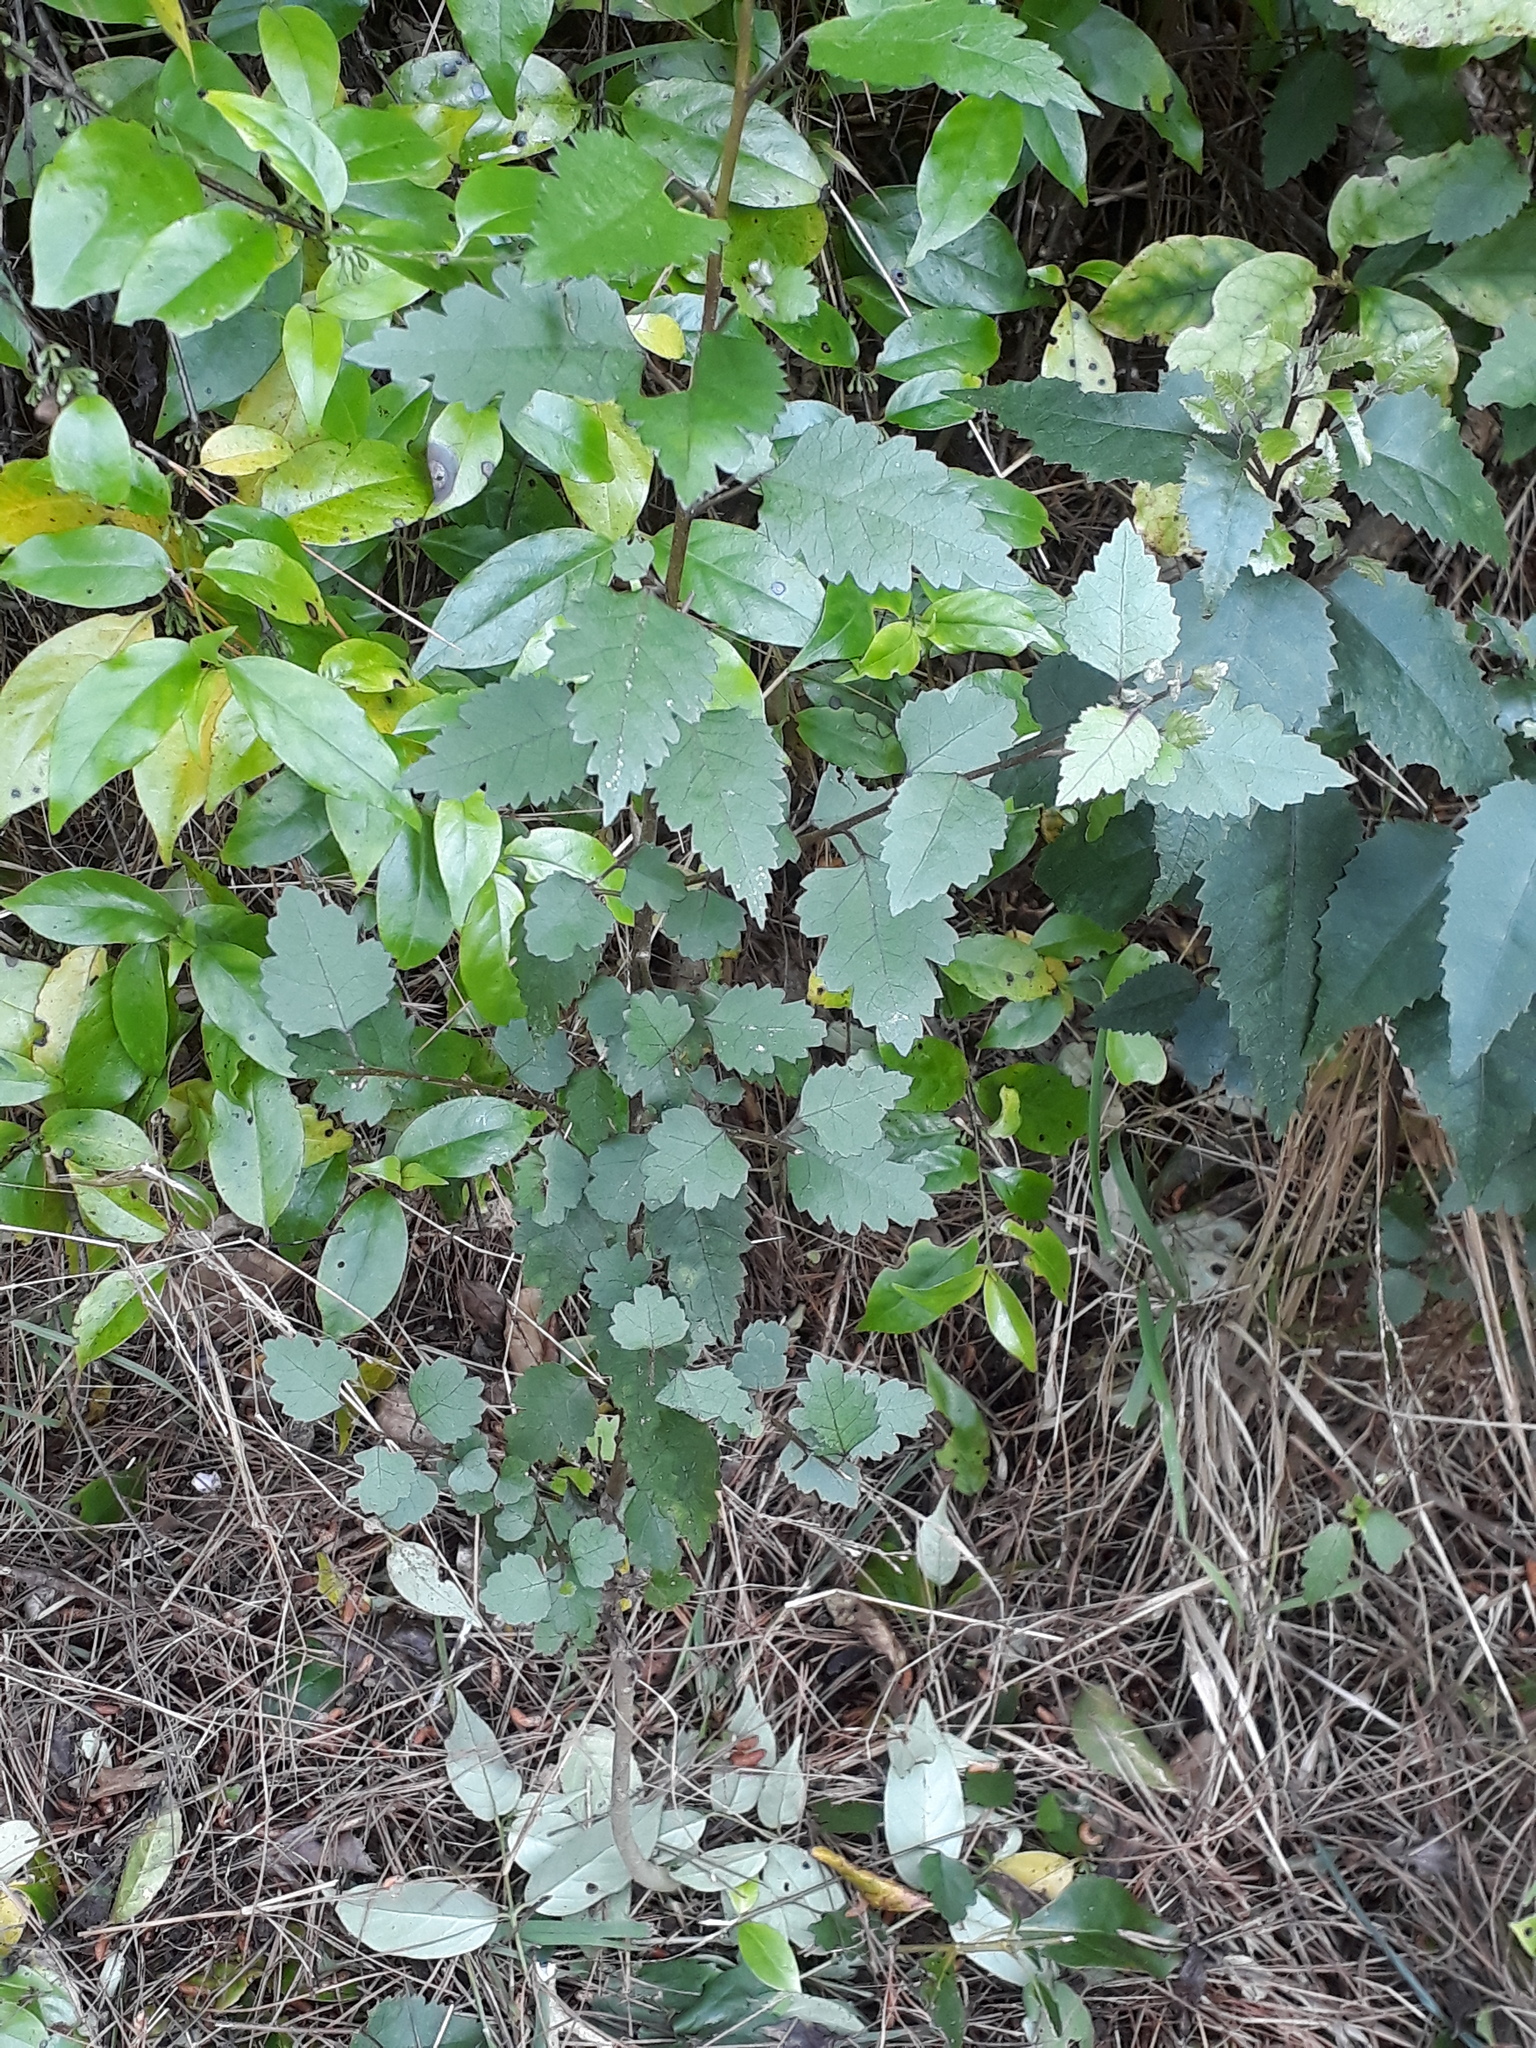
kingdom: Plantae
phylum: Tracheophyta
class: Magnoliopsida
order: Malvales
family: Malvaceae
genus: Hoheria
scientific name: Hoheria sexstylosa
